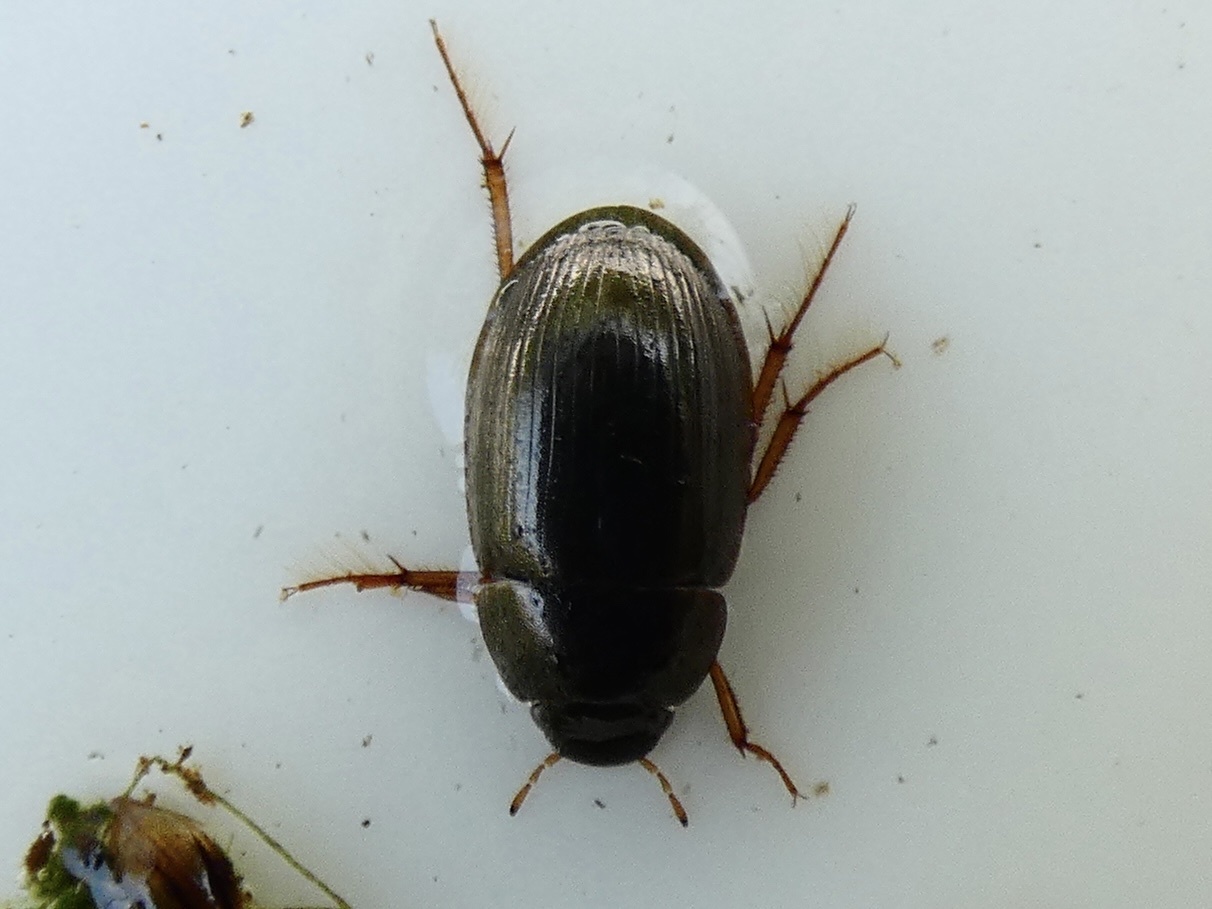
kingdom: Animalia
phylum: Arthropoda
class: Insecta
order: Coleoptera
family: Hydrophilidae
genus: Hydrobius
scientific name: Hydrobius
